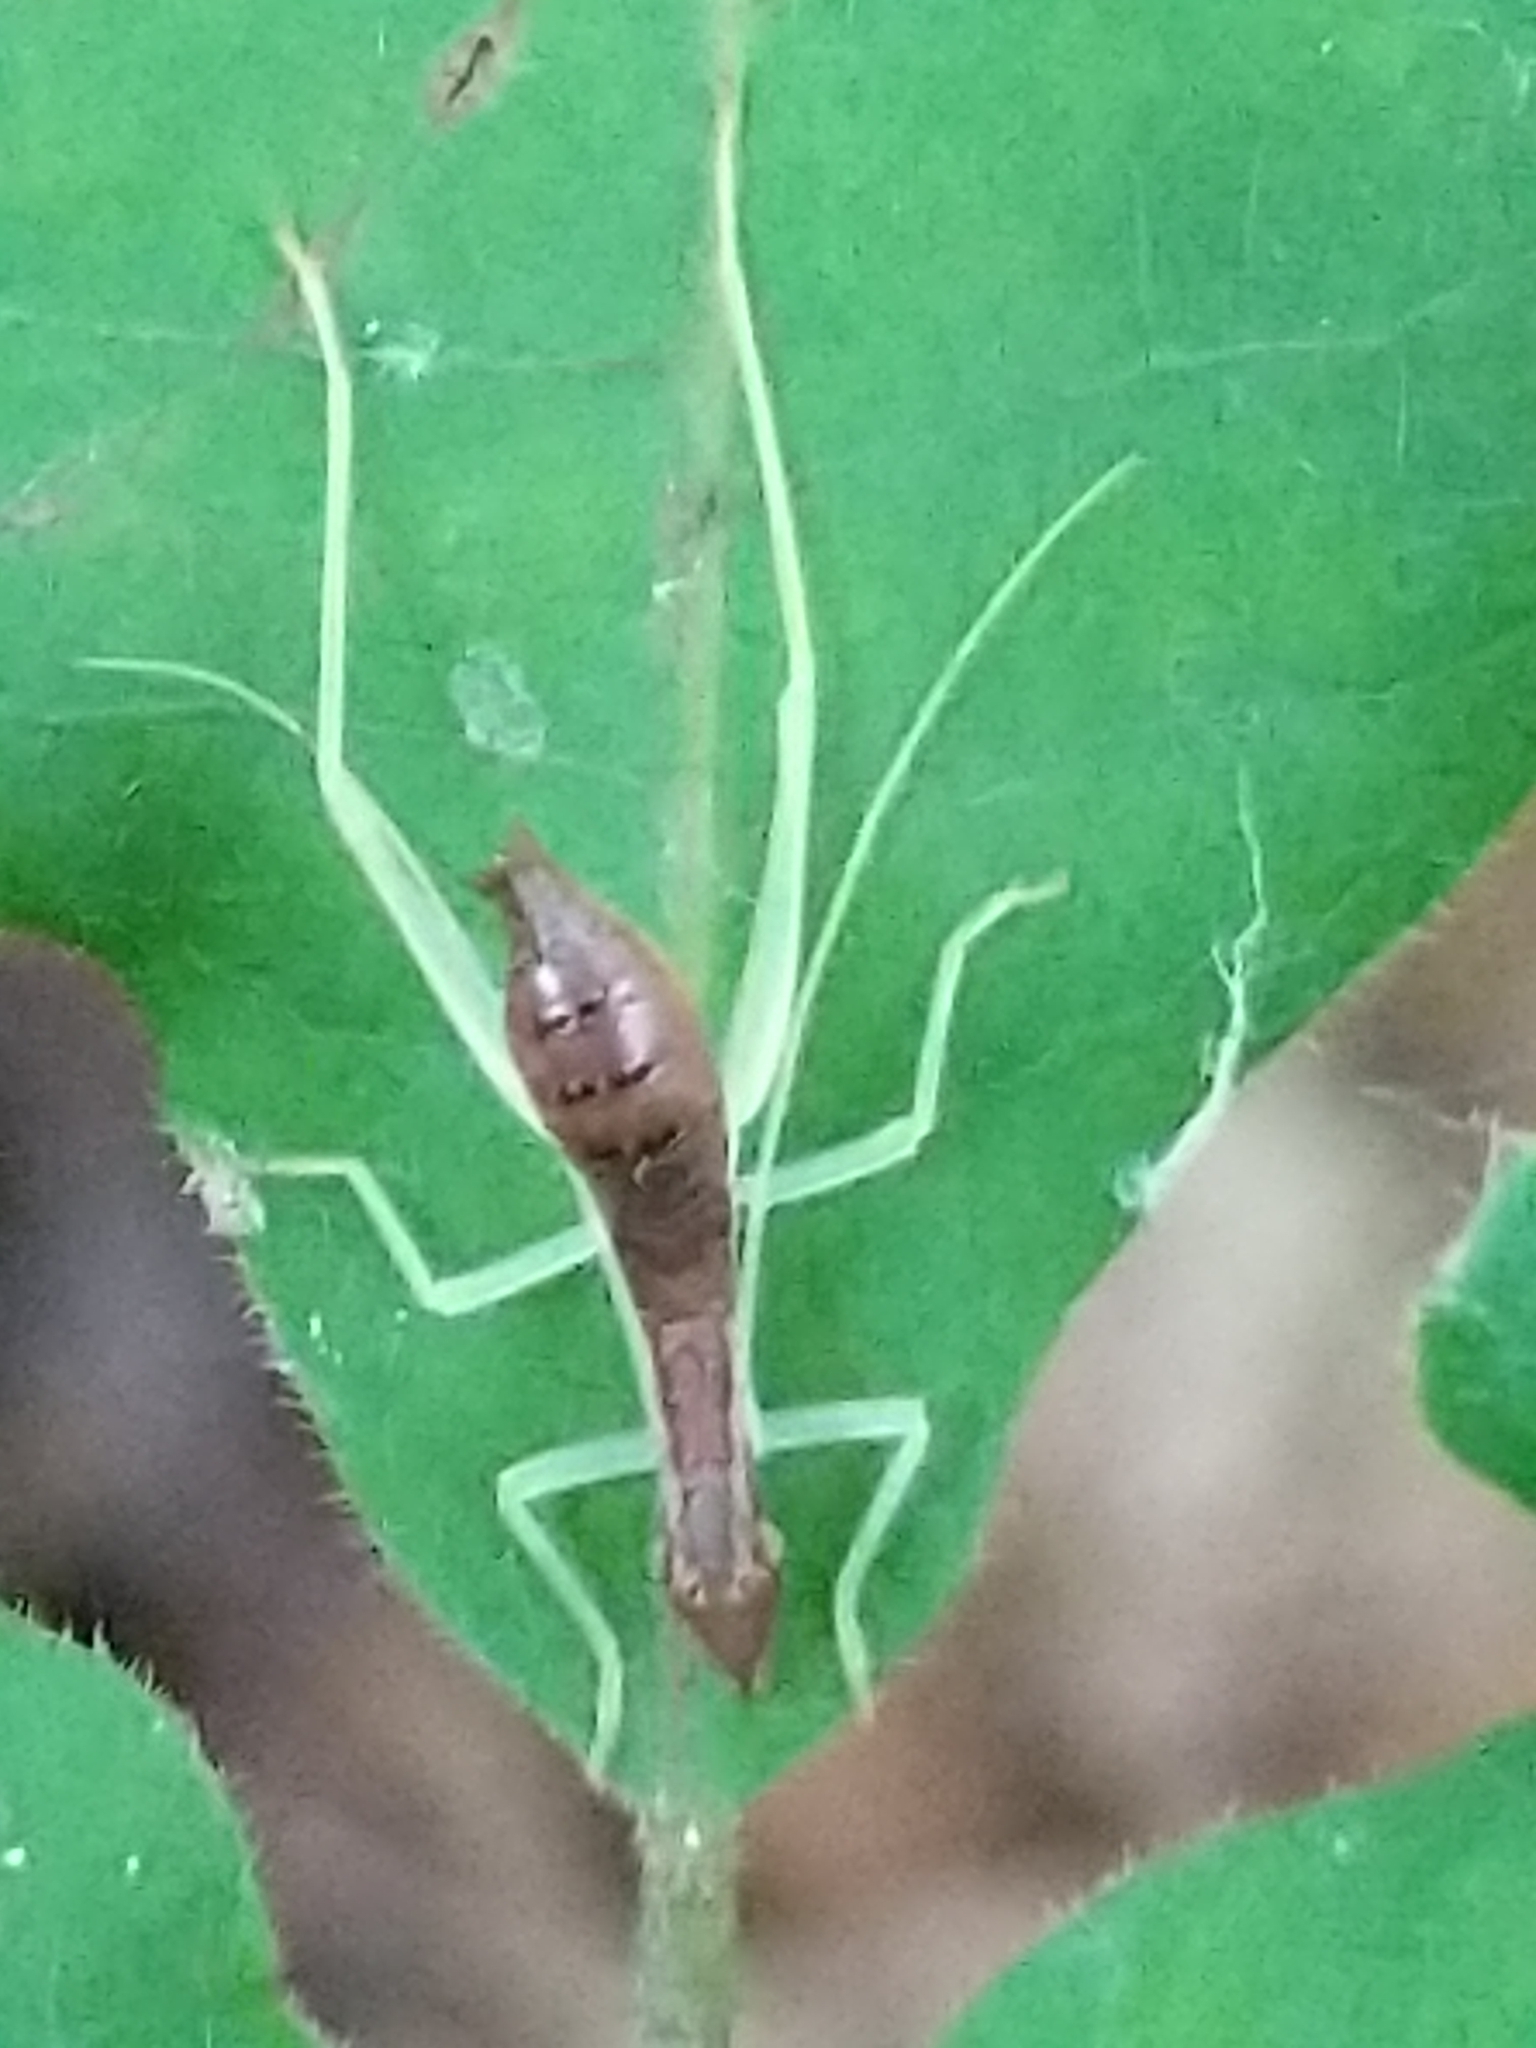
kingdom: Animalia
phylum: Arthropoda
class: Insecta
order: Orthoptera
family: Gryllidae
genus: Neoxabea
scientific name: Neoxabea bipunctata
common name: Two-spotted tree cricket
